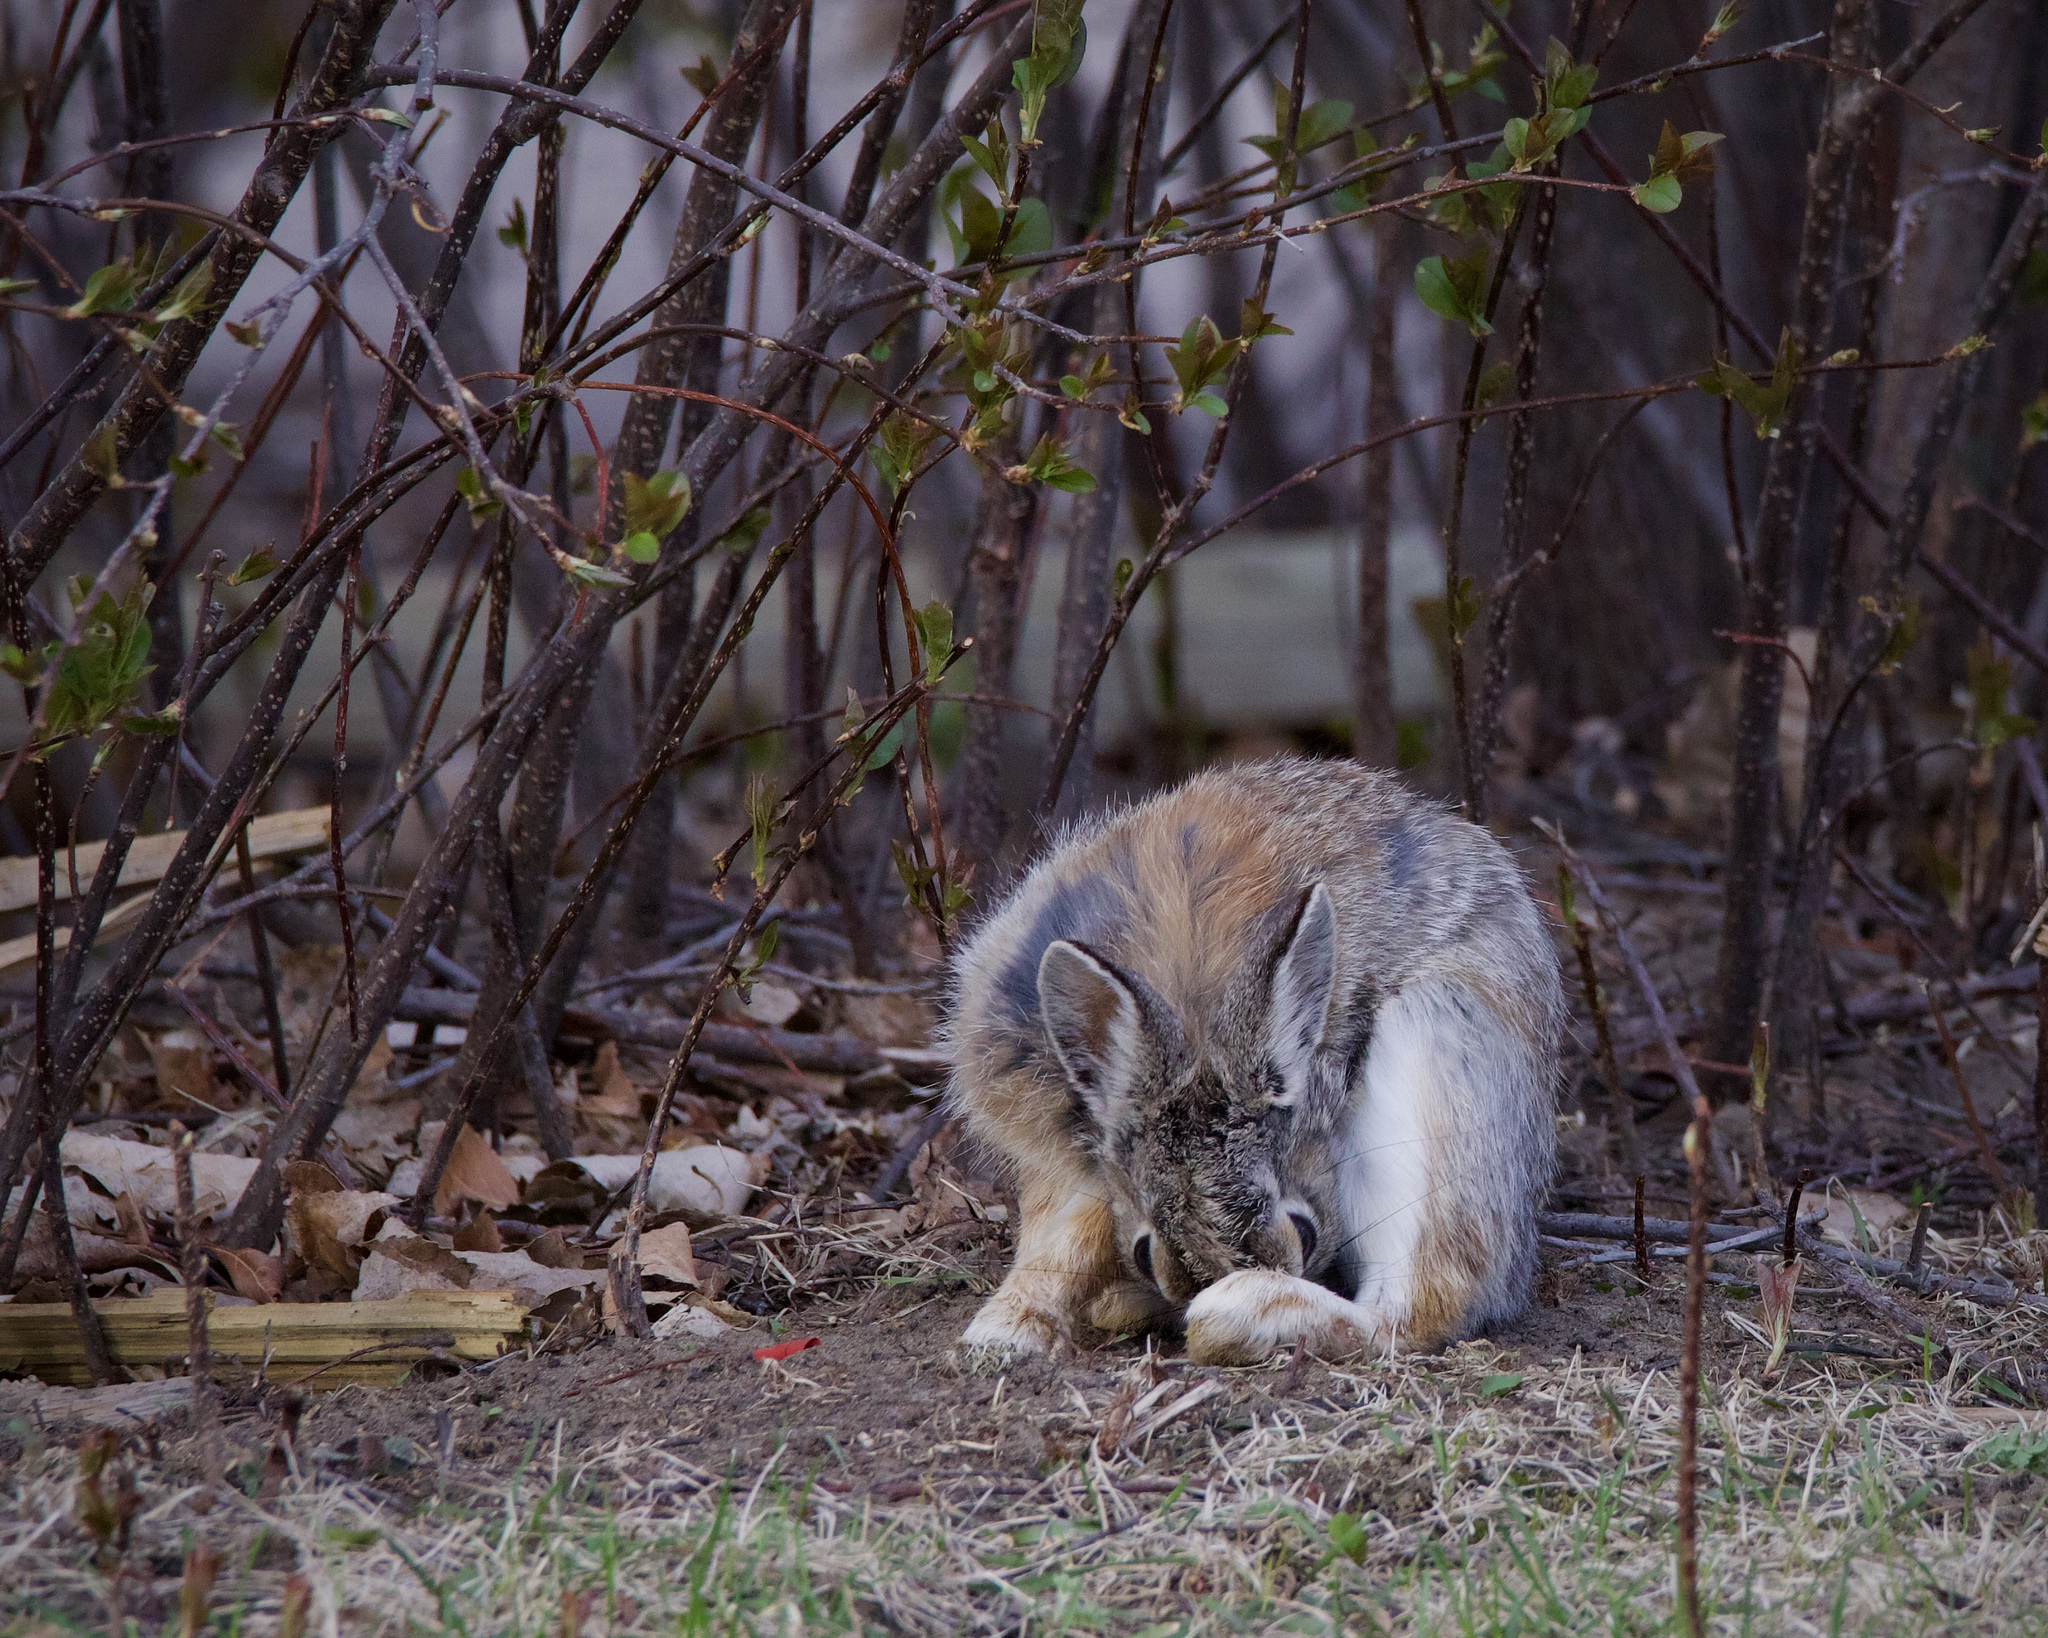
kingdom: Animalia
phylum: Chordata
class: Mammalia
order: Lagomorpha
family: Leporidae
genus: Sylvilagus
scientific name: Sylvilagus nuttallii
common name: Mountain cottontail
